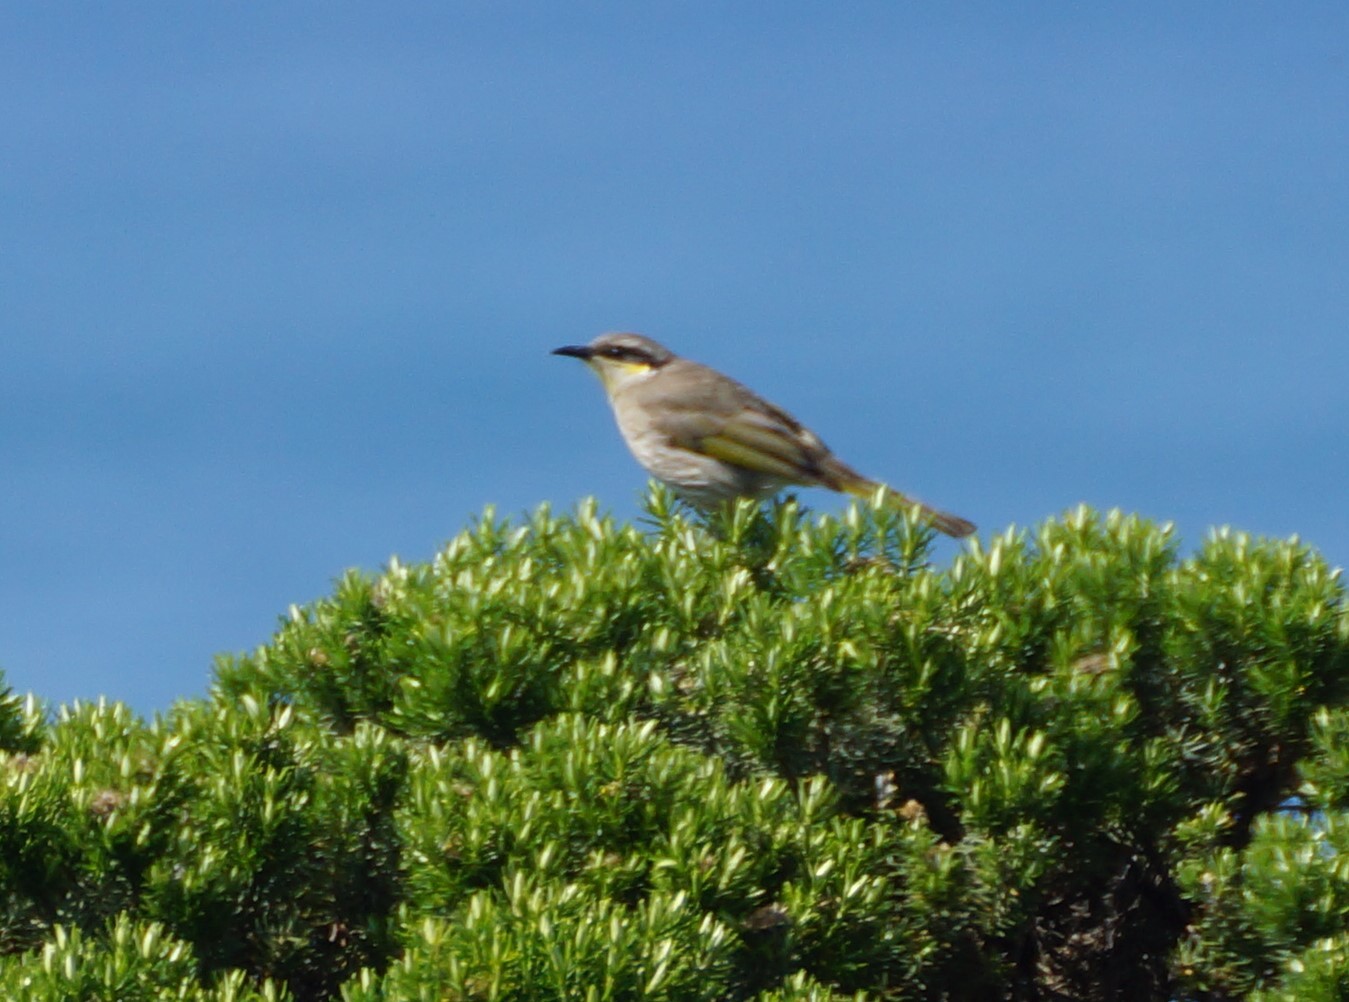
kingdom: Animalia
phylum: Chordata
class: Aves
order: Passeriformes
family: Meliphagidae
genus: Gavicalis
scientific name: Gavicalis virescens
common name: Singing honeyeater
